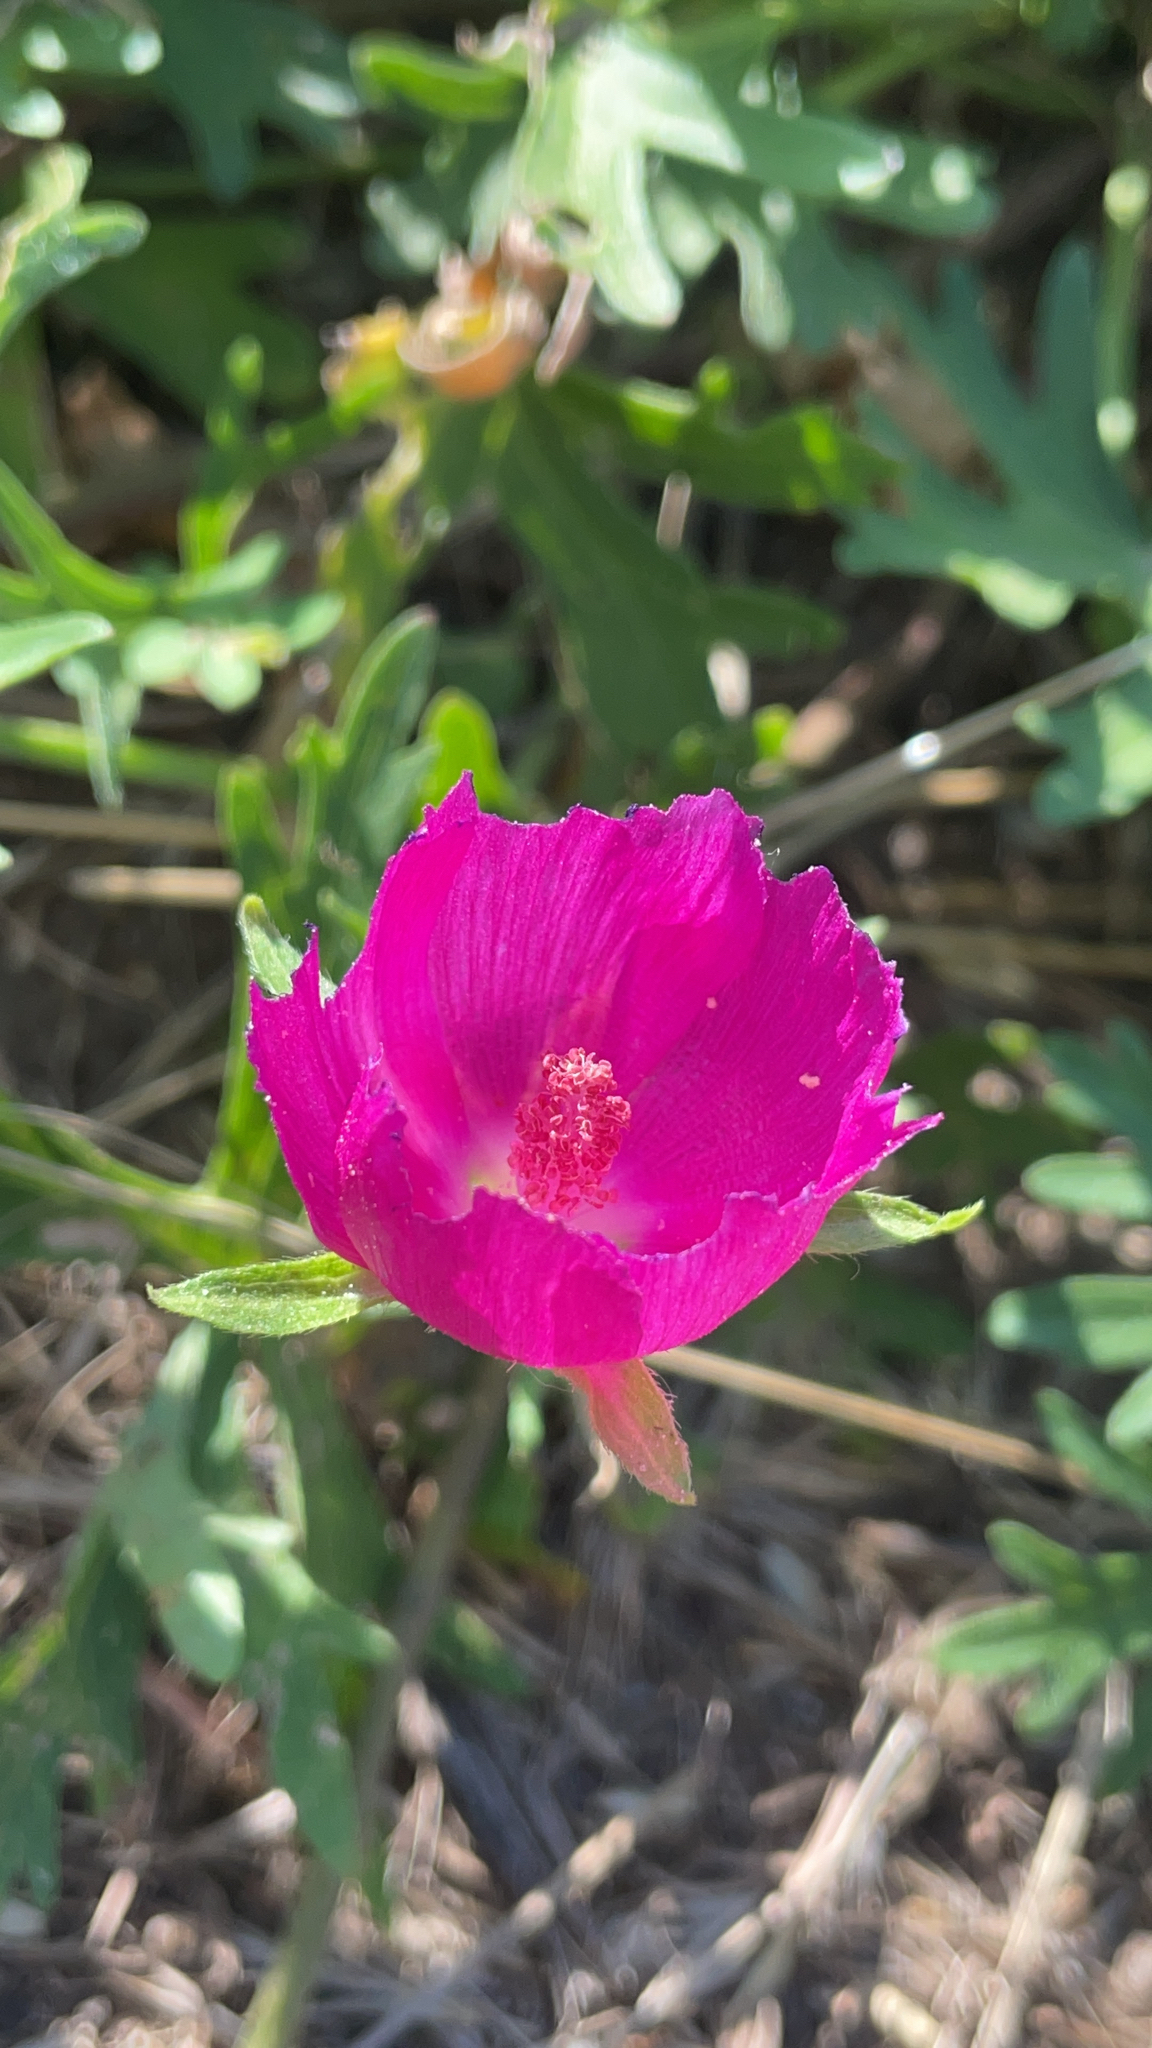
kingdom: Plantae
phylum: Tracheophyta
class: Magnoliopsida
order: Malvales
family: Malvaceae
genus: Callirhoe
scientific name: Callirhoe involucrata
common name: Purple poppy-mallow
